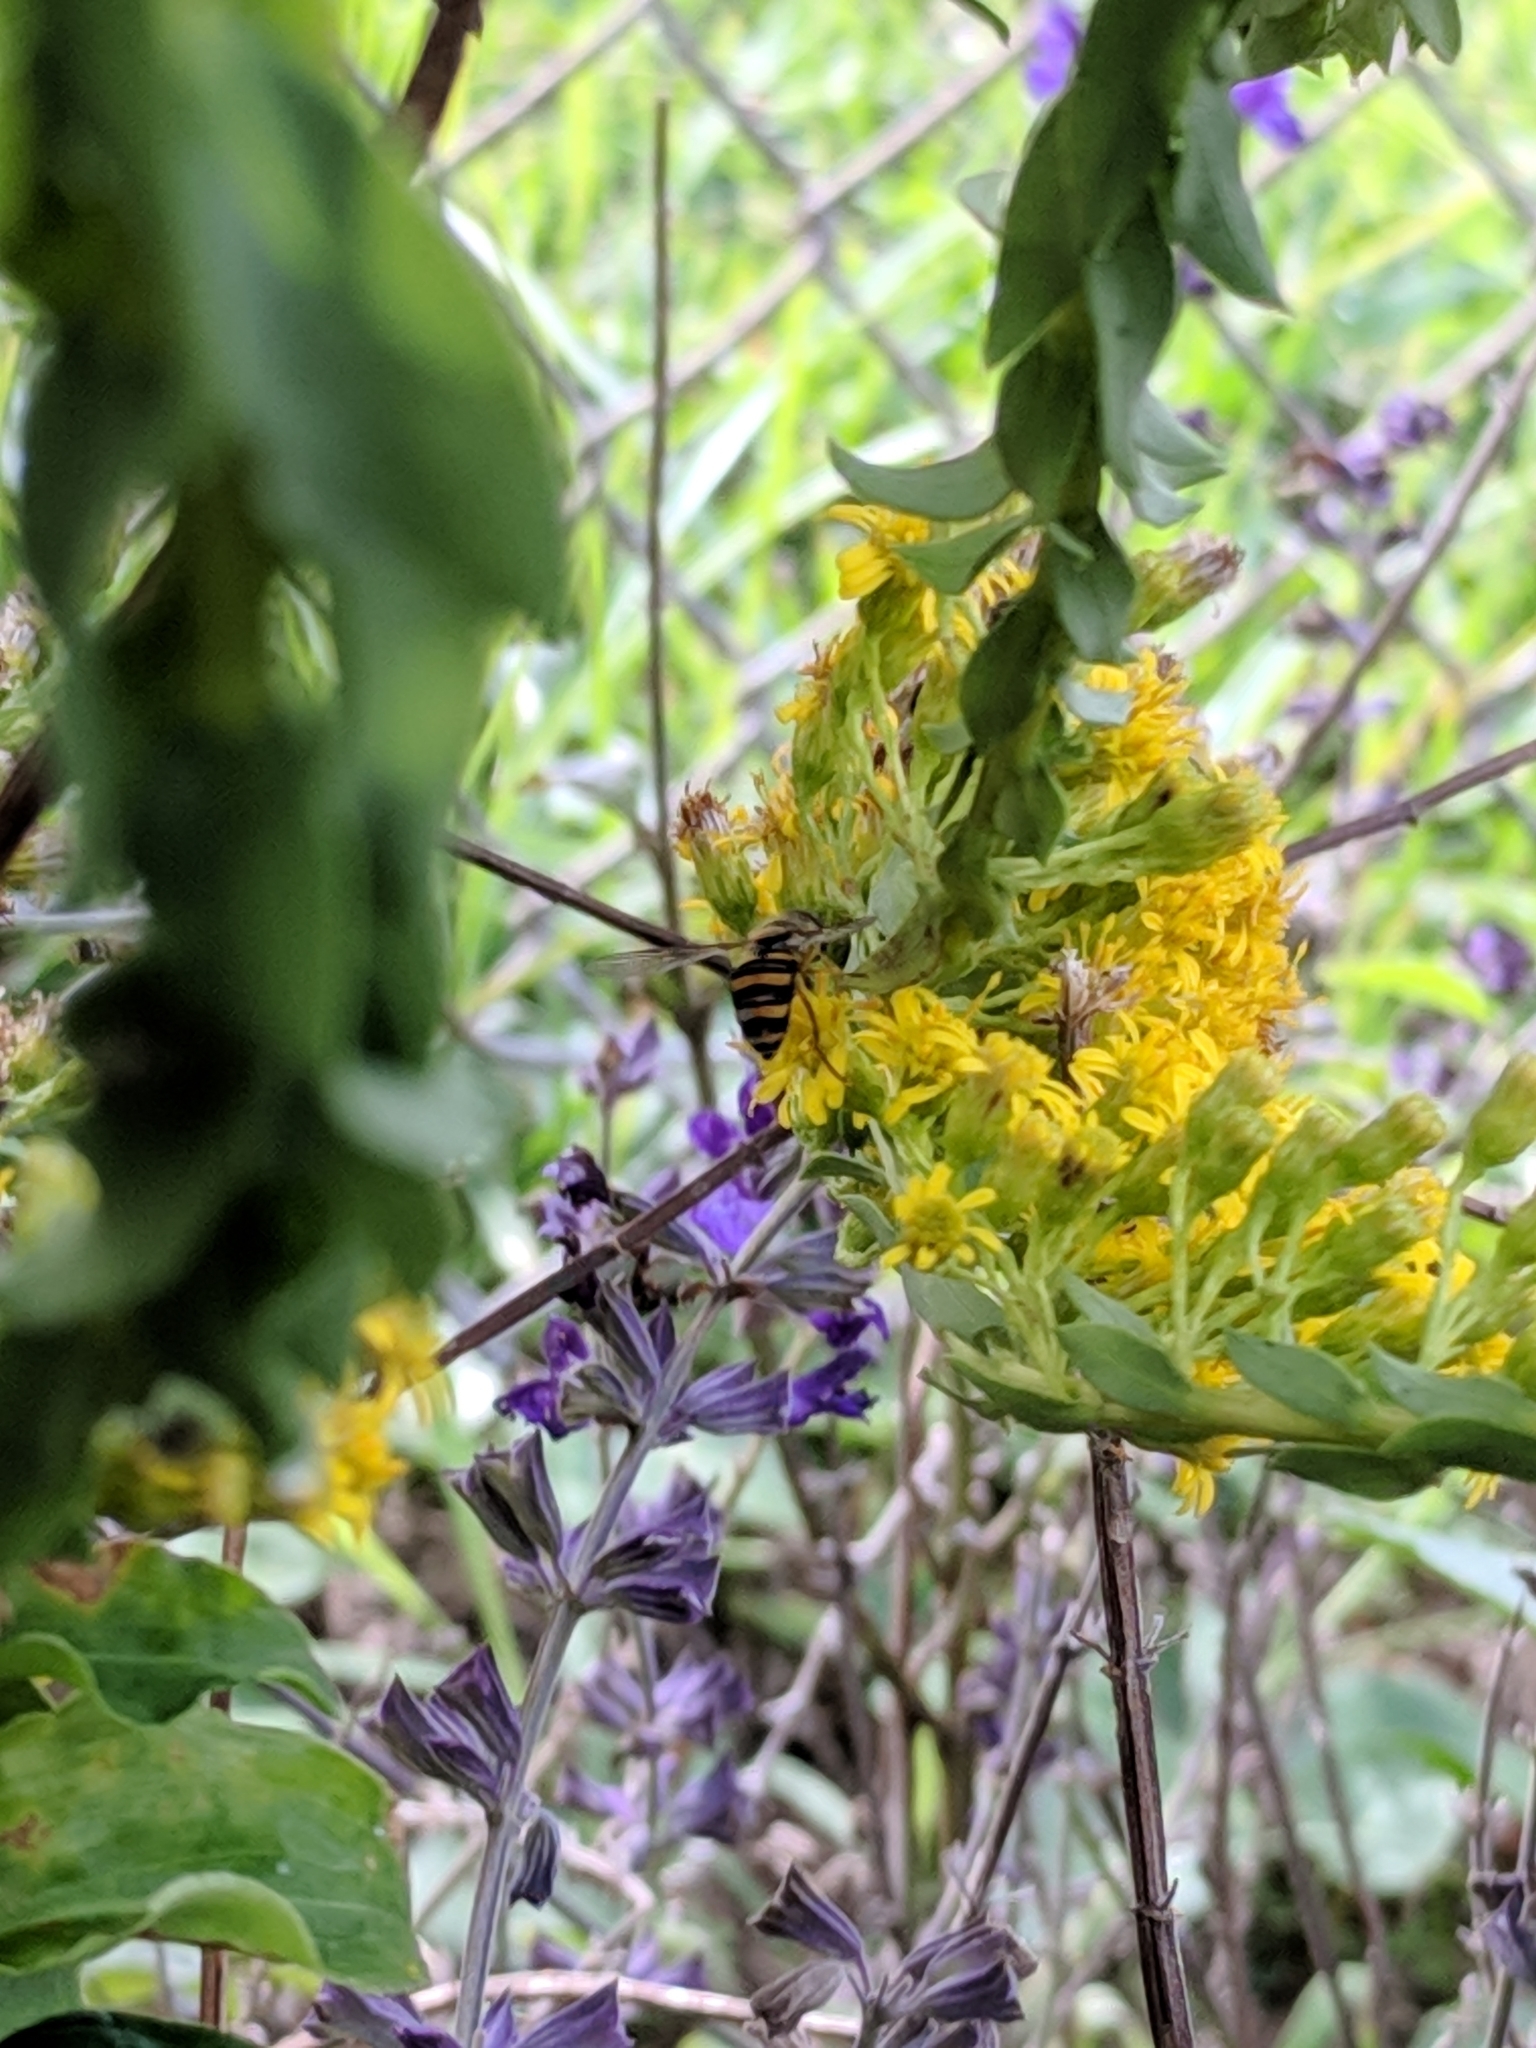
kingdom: Animalia
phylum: Arthropoda
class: Insecta
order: Diptera
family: Syrphidae
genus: Eupeodes
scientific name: Eupeodes
